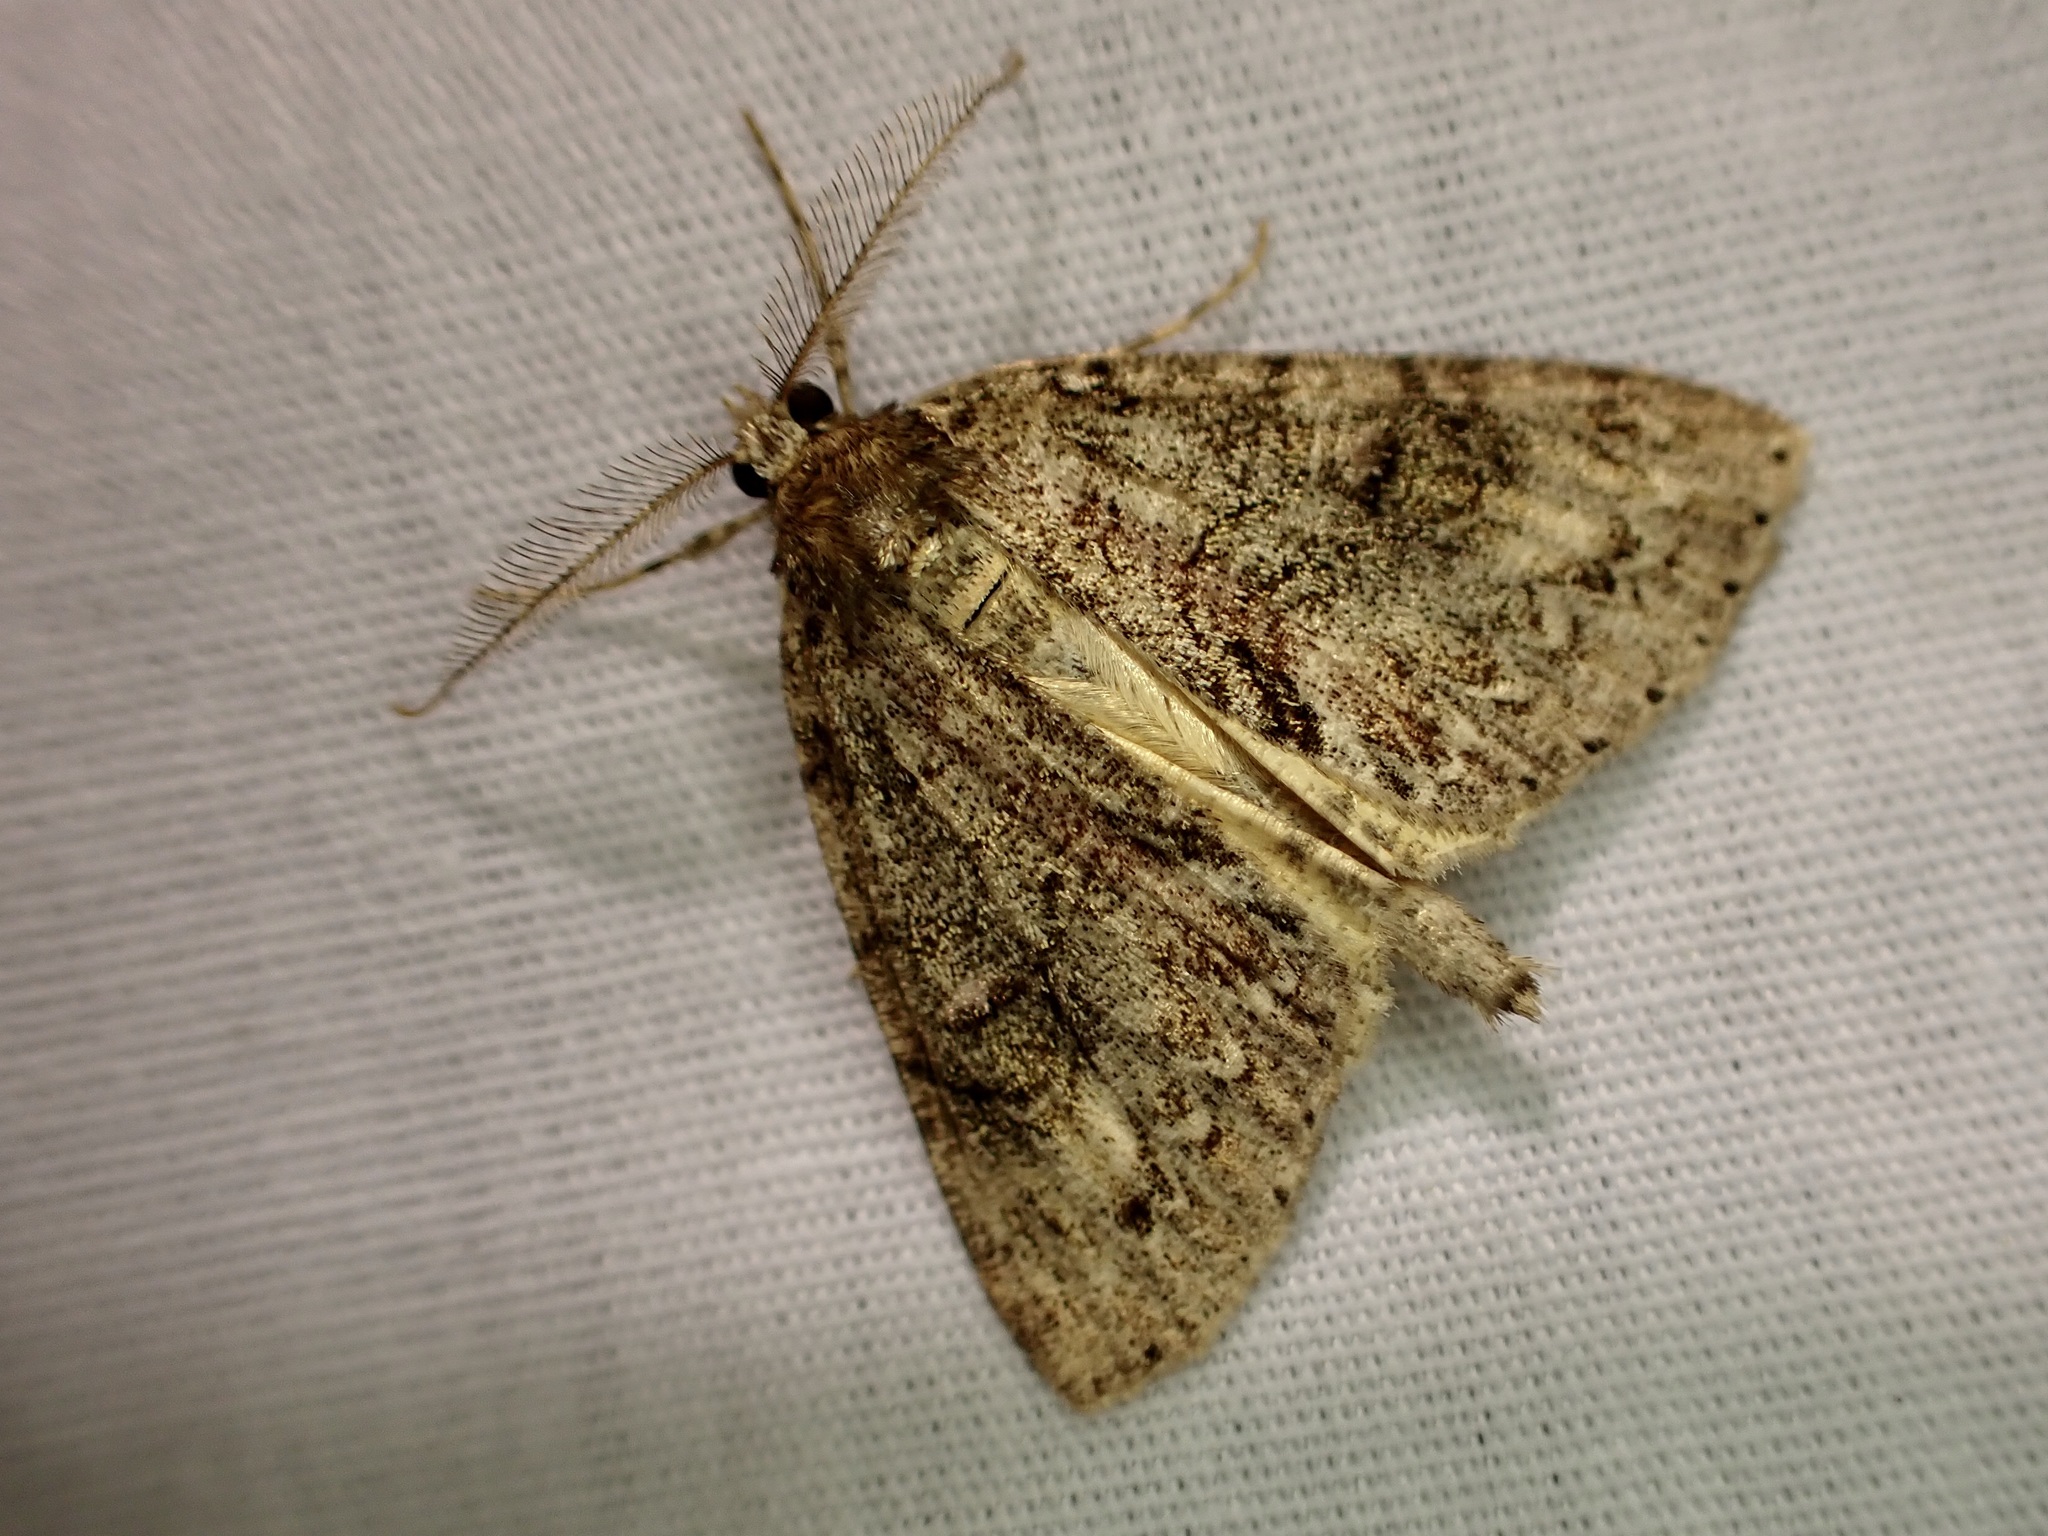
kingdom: Animalia
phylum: Arthropoda
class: Insecta
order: Lepidoptera
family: Geometridae
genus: Pseudocoremia
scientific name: Pseudocoremia suavis
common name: Common forest looper
